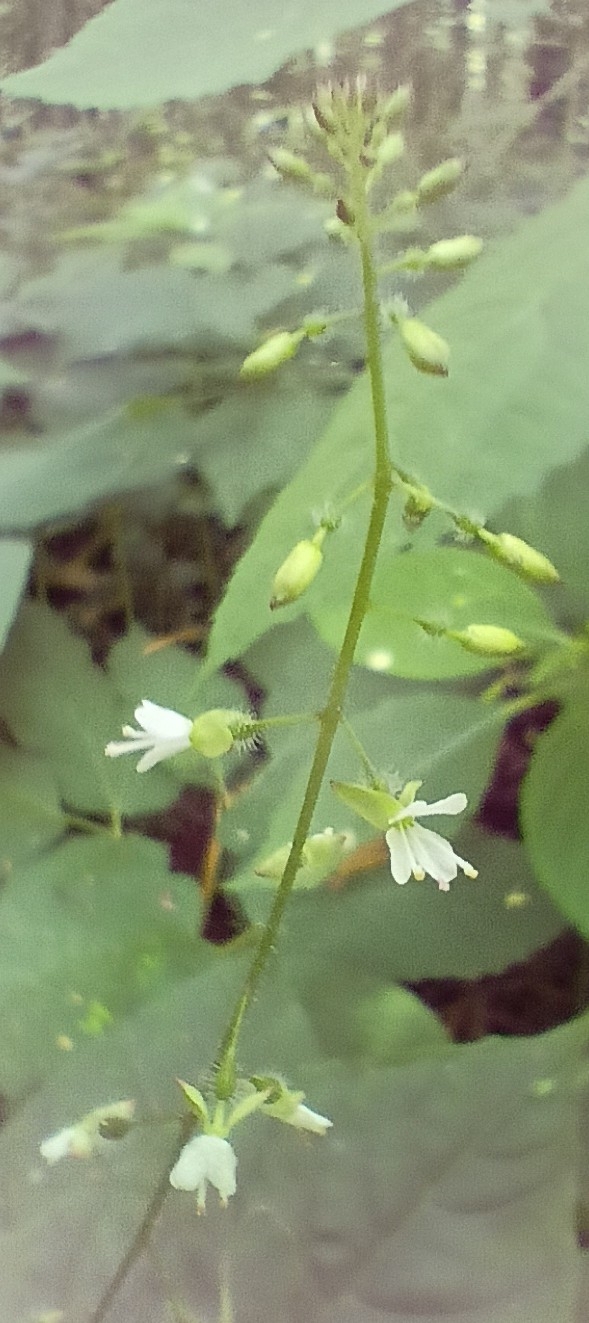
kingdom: Plantae
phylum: Tracheophyta
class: Magnoliopsida
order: Myrtales
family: Onagraceae
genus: Circaea
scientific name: Circaea lutetiana
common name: Enchanter's-nightshade
